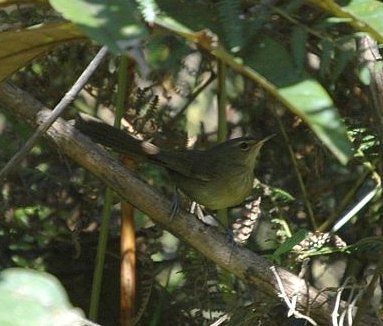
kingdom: Animalia
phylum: Chordata
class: Aves
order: Passeriformes
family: Acrocephalidae
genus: Nesillas
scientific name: Nesillas typica
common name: Malagasy brush warbler
